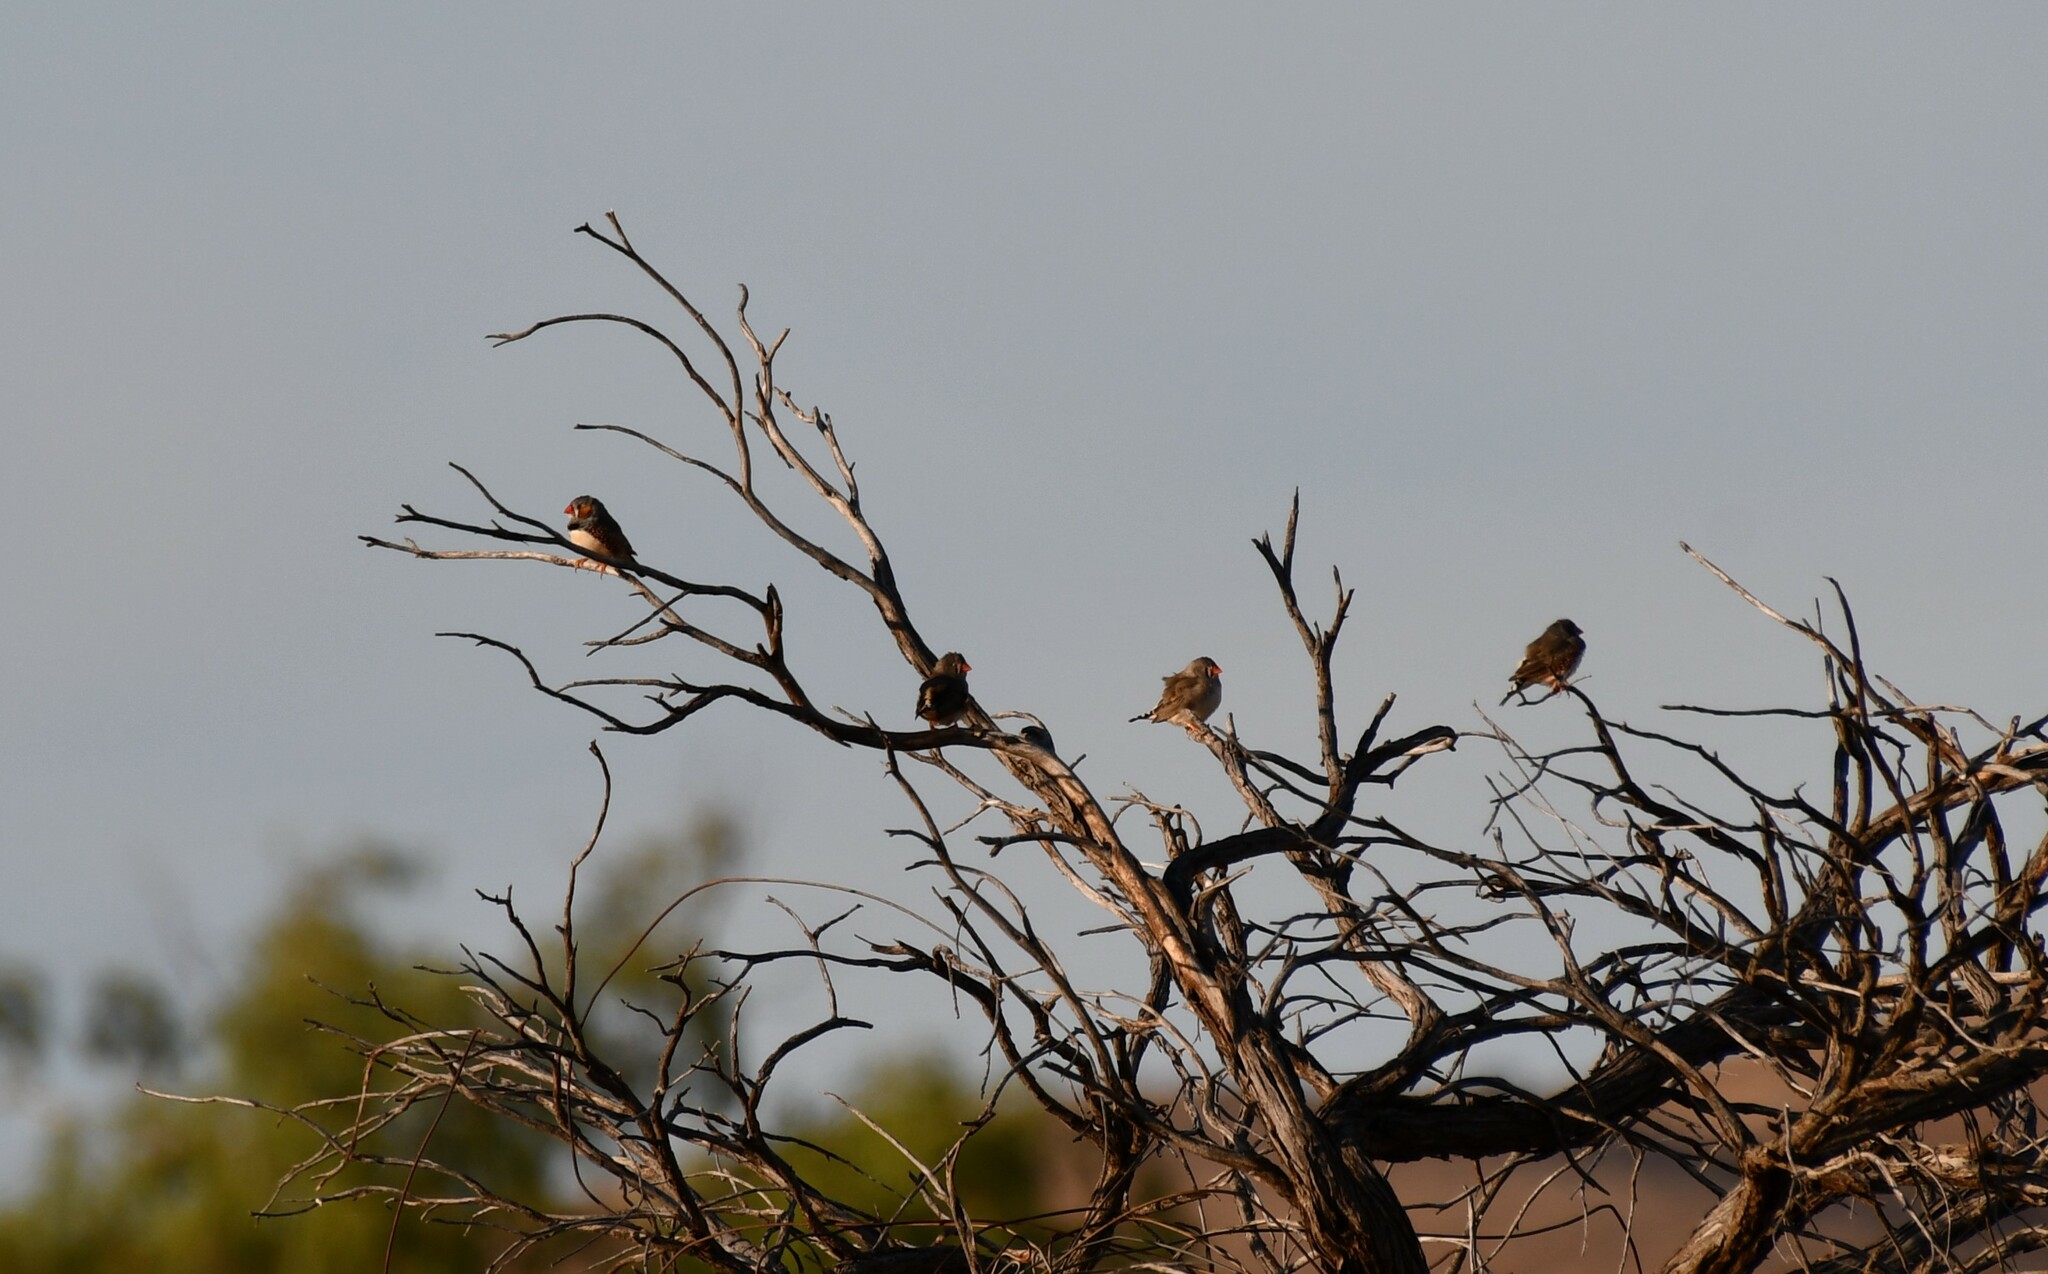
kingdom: Animalia
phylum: Chordata
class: Aves
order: Passeriformes
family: Estrildidae
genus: Taeniopygia
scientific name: Taeniopygia guttata
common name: Zebra finch
